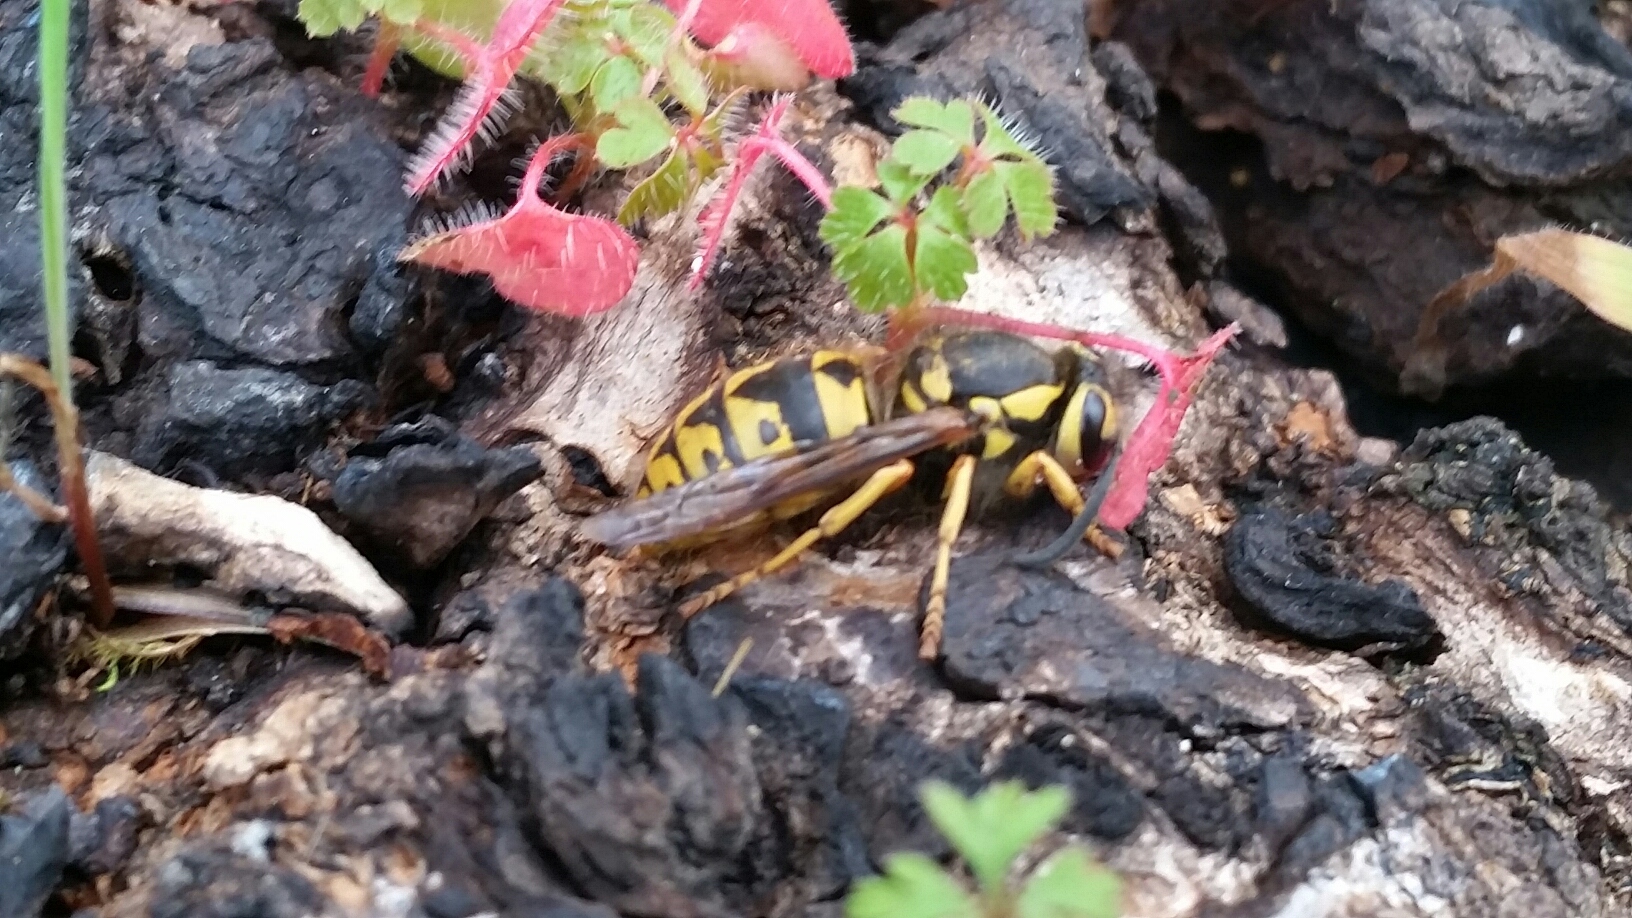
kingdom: Animalia
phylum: Arthropoda
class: Insecta
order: Hymenoptera
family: Vespidae
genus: Vespula
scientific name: Vespula pensylvanica
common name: Western yellowjacket
